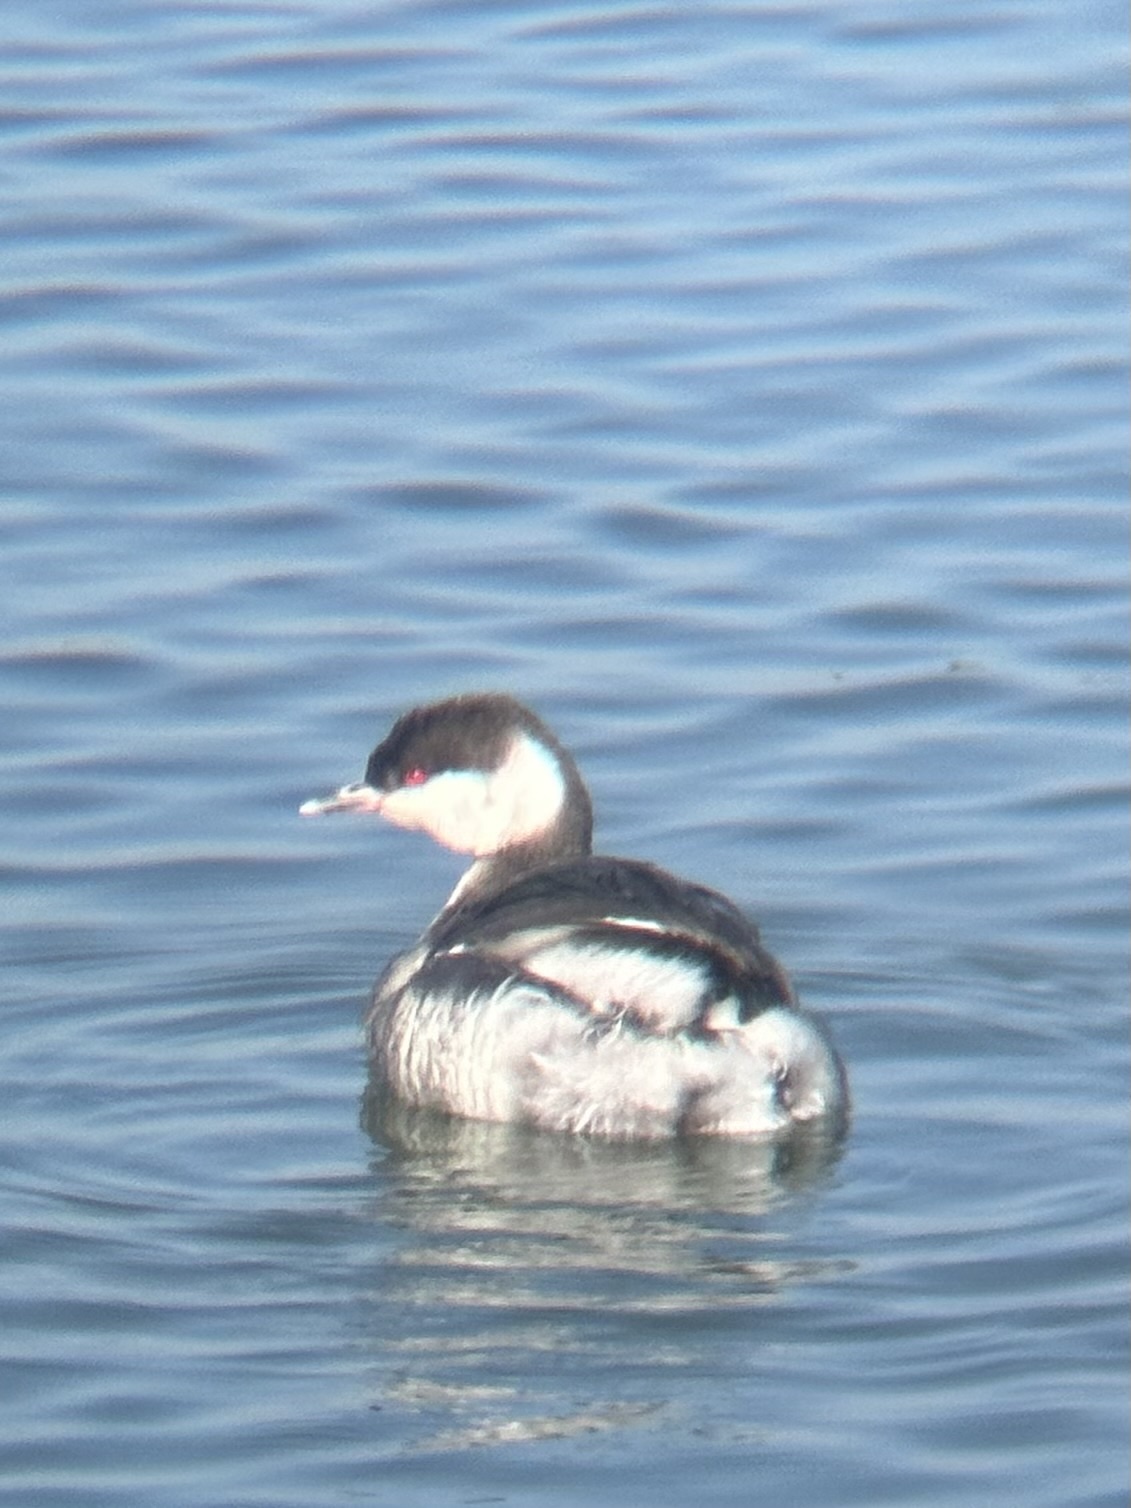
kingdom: Animalia
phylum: Chordata
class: Aves
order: Podicipediformes
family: Podicipedidae
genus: Podiceps
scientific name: Podiceps auritus
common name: Horned grebe
